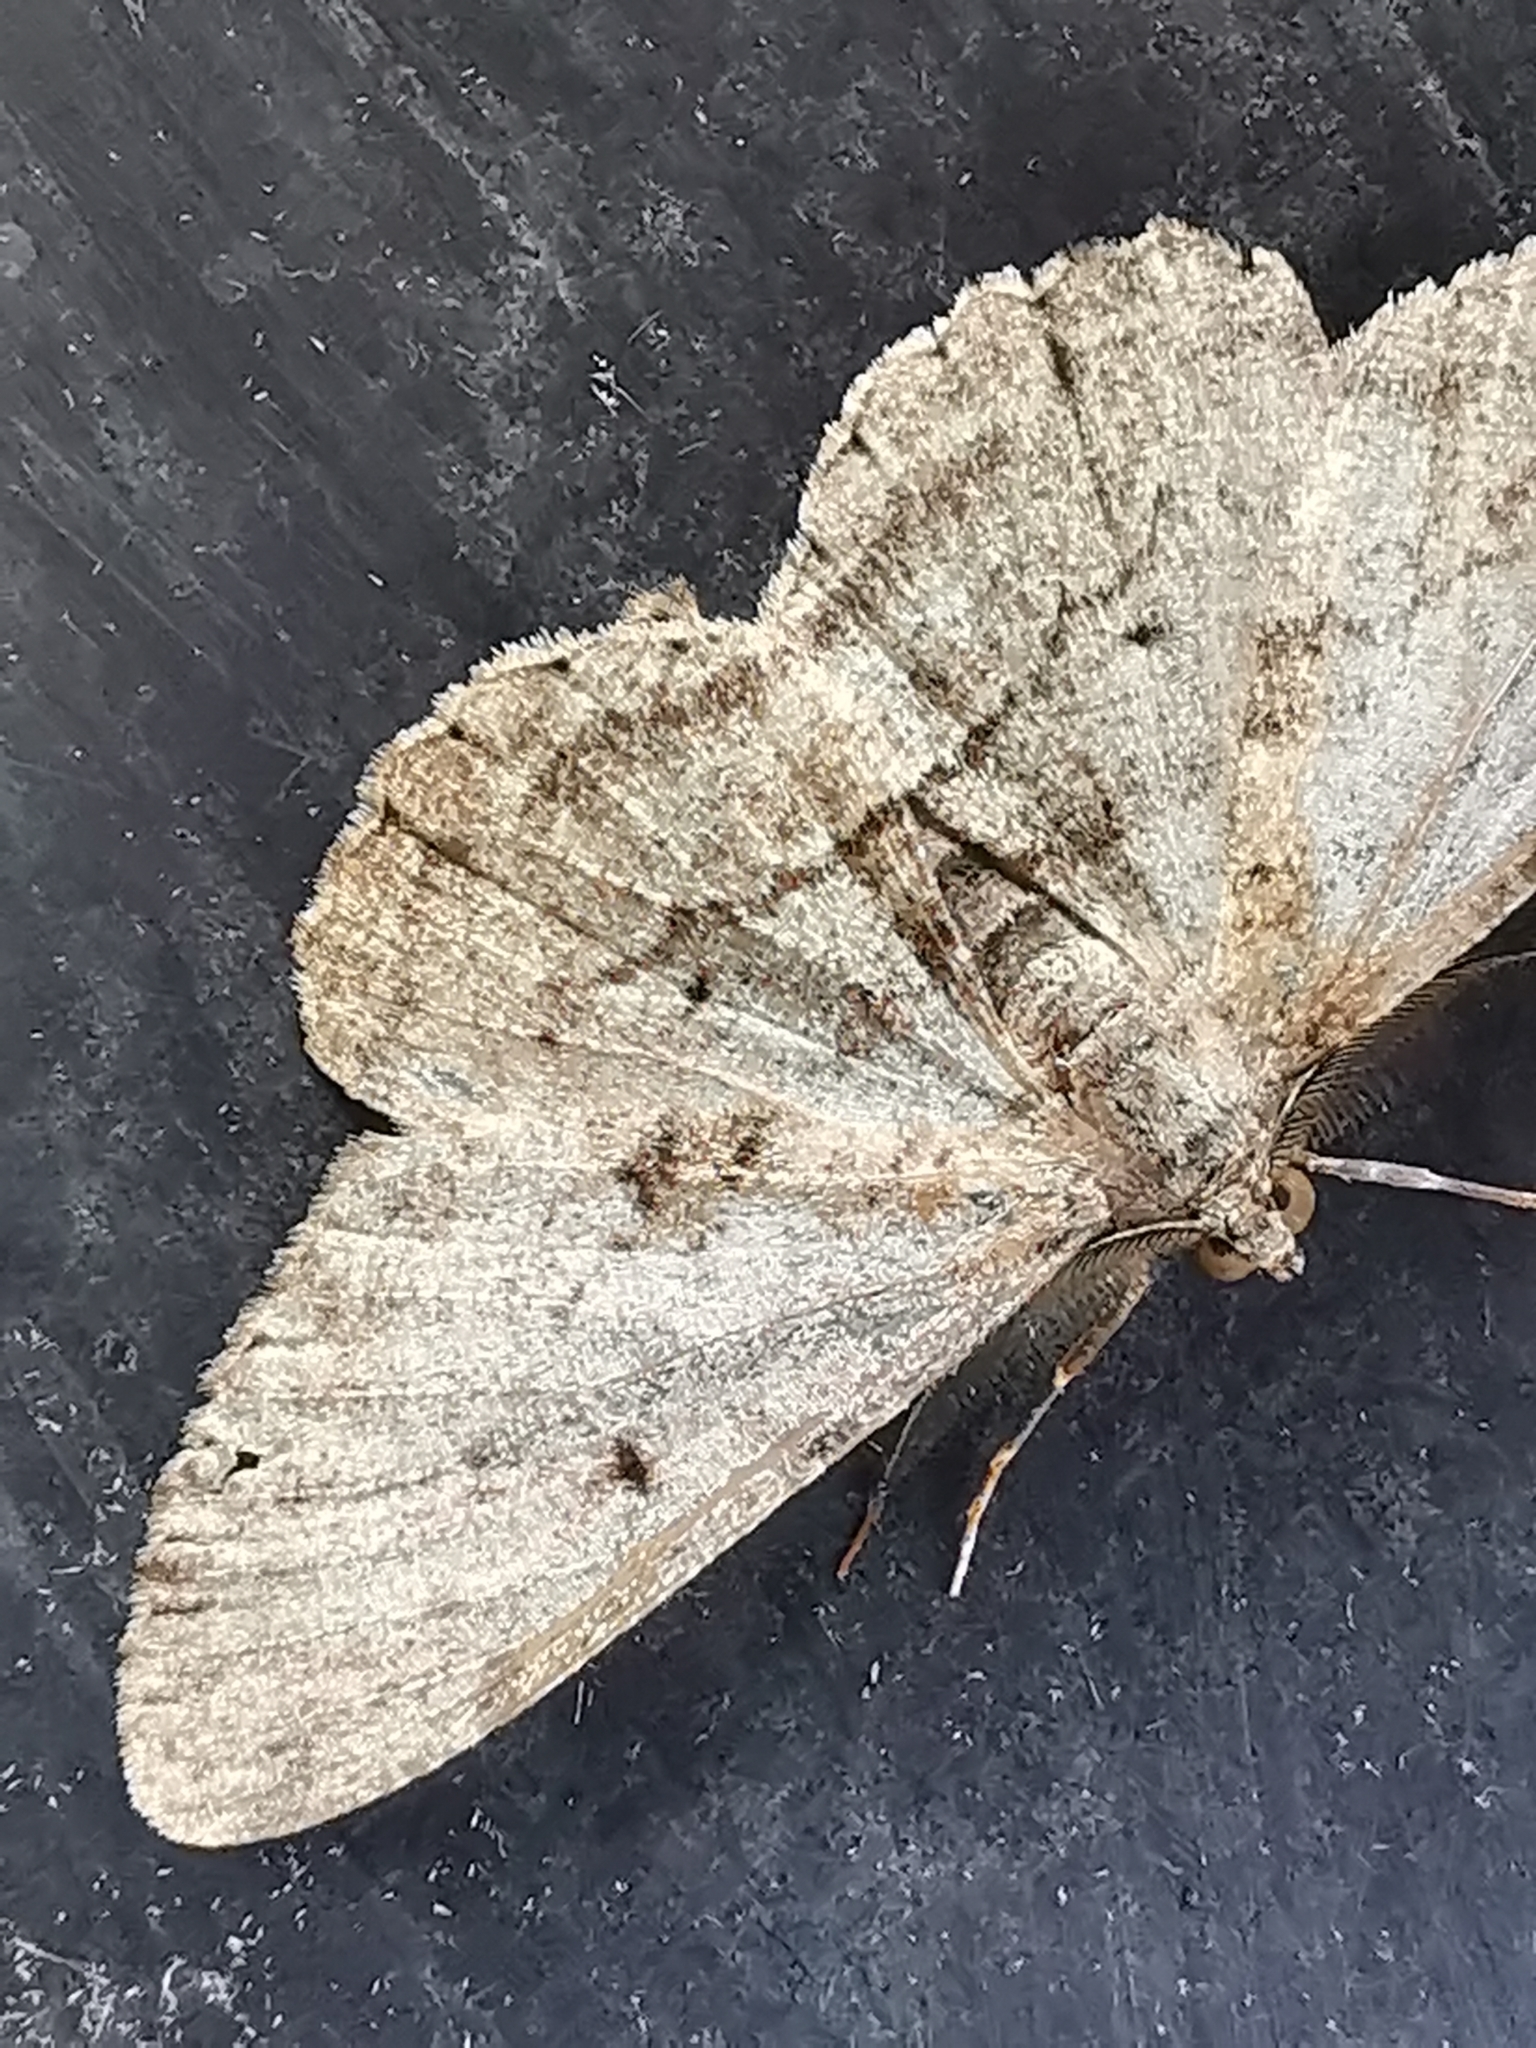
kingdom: Animalia
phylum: Arthropoda
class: Insecta
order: Lepidoptera
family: Geometridae
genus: Peribatodes
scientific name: Peribatodes rhomboidaria
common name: Willow beauty
